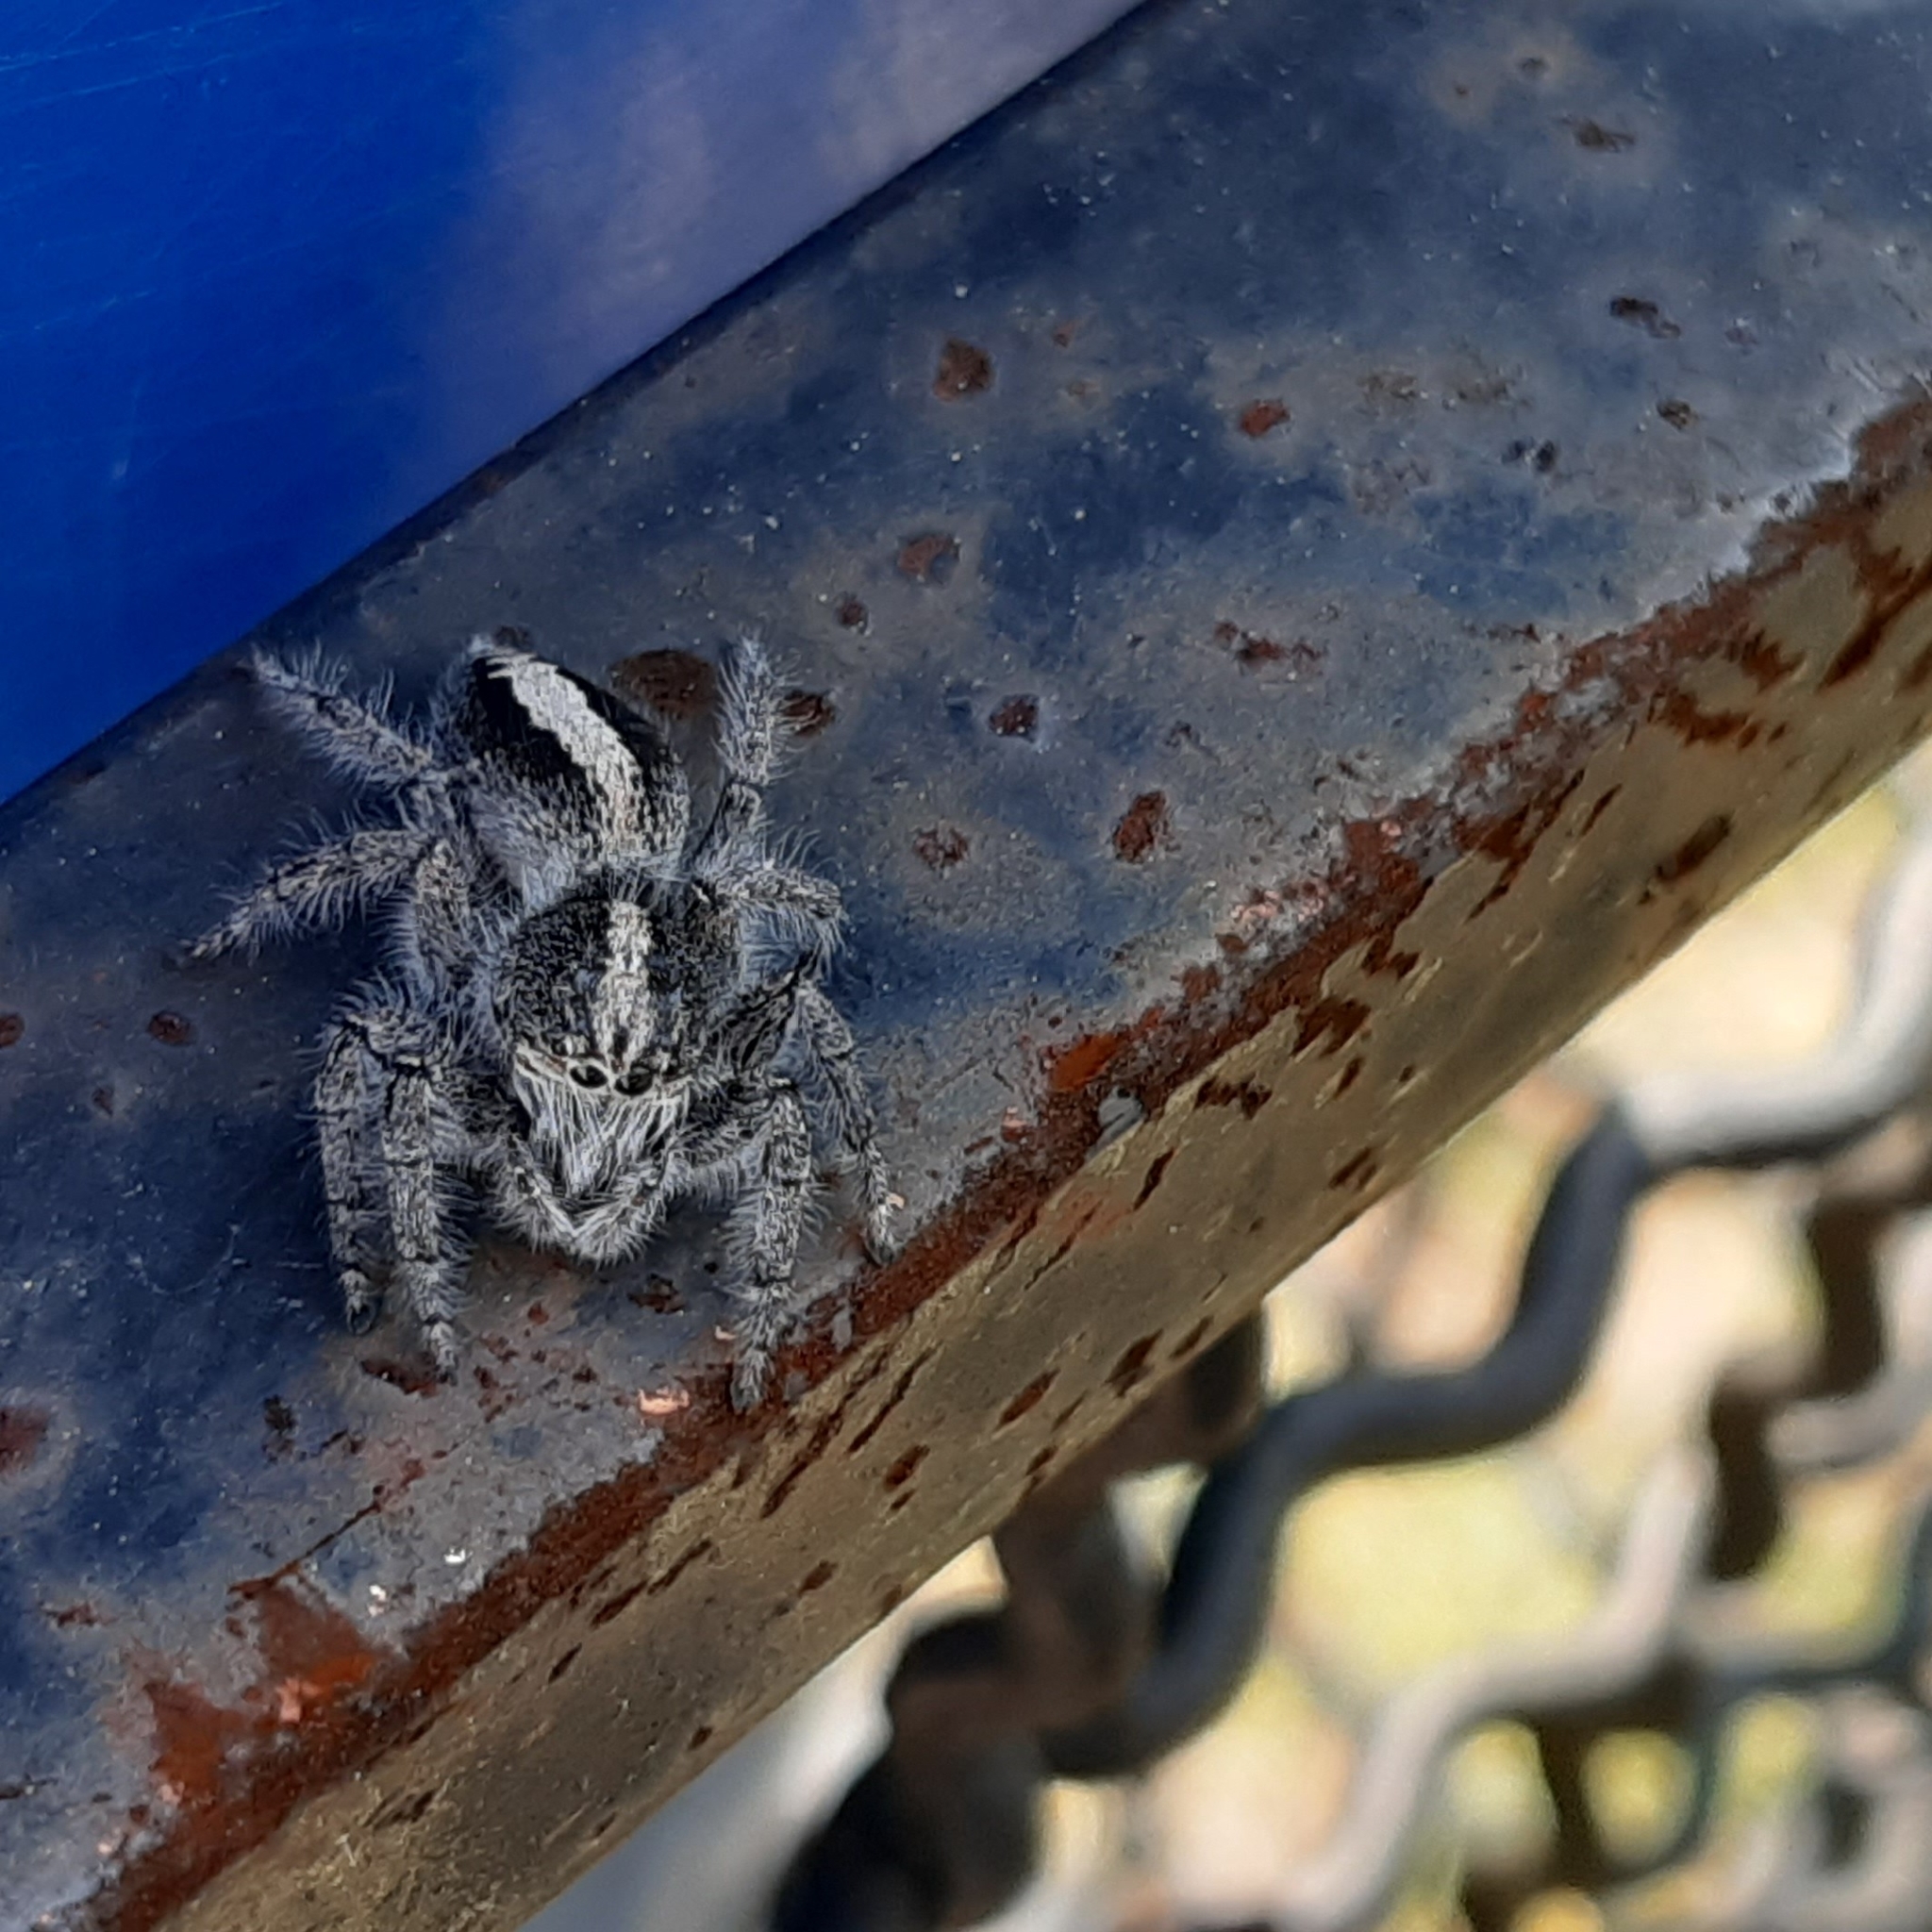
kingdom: Animalia
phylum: Arthropoda
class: Arachnida
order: Araneae
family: Salticidae
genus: Megafreya
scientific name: Megafreya sutrix
